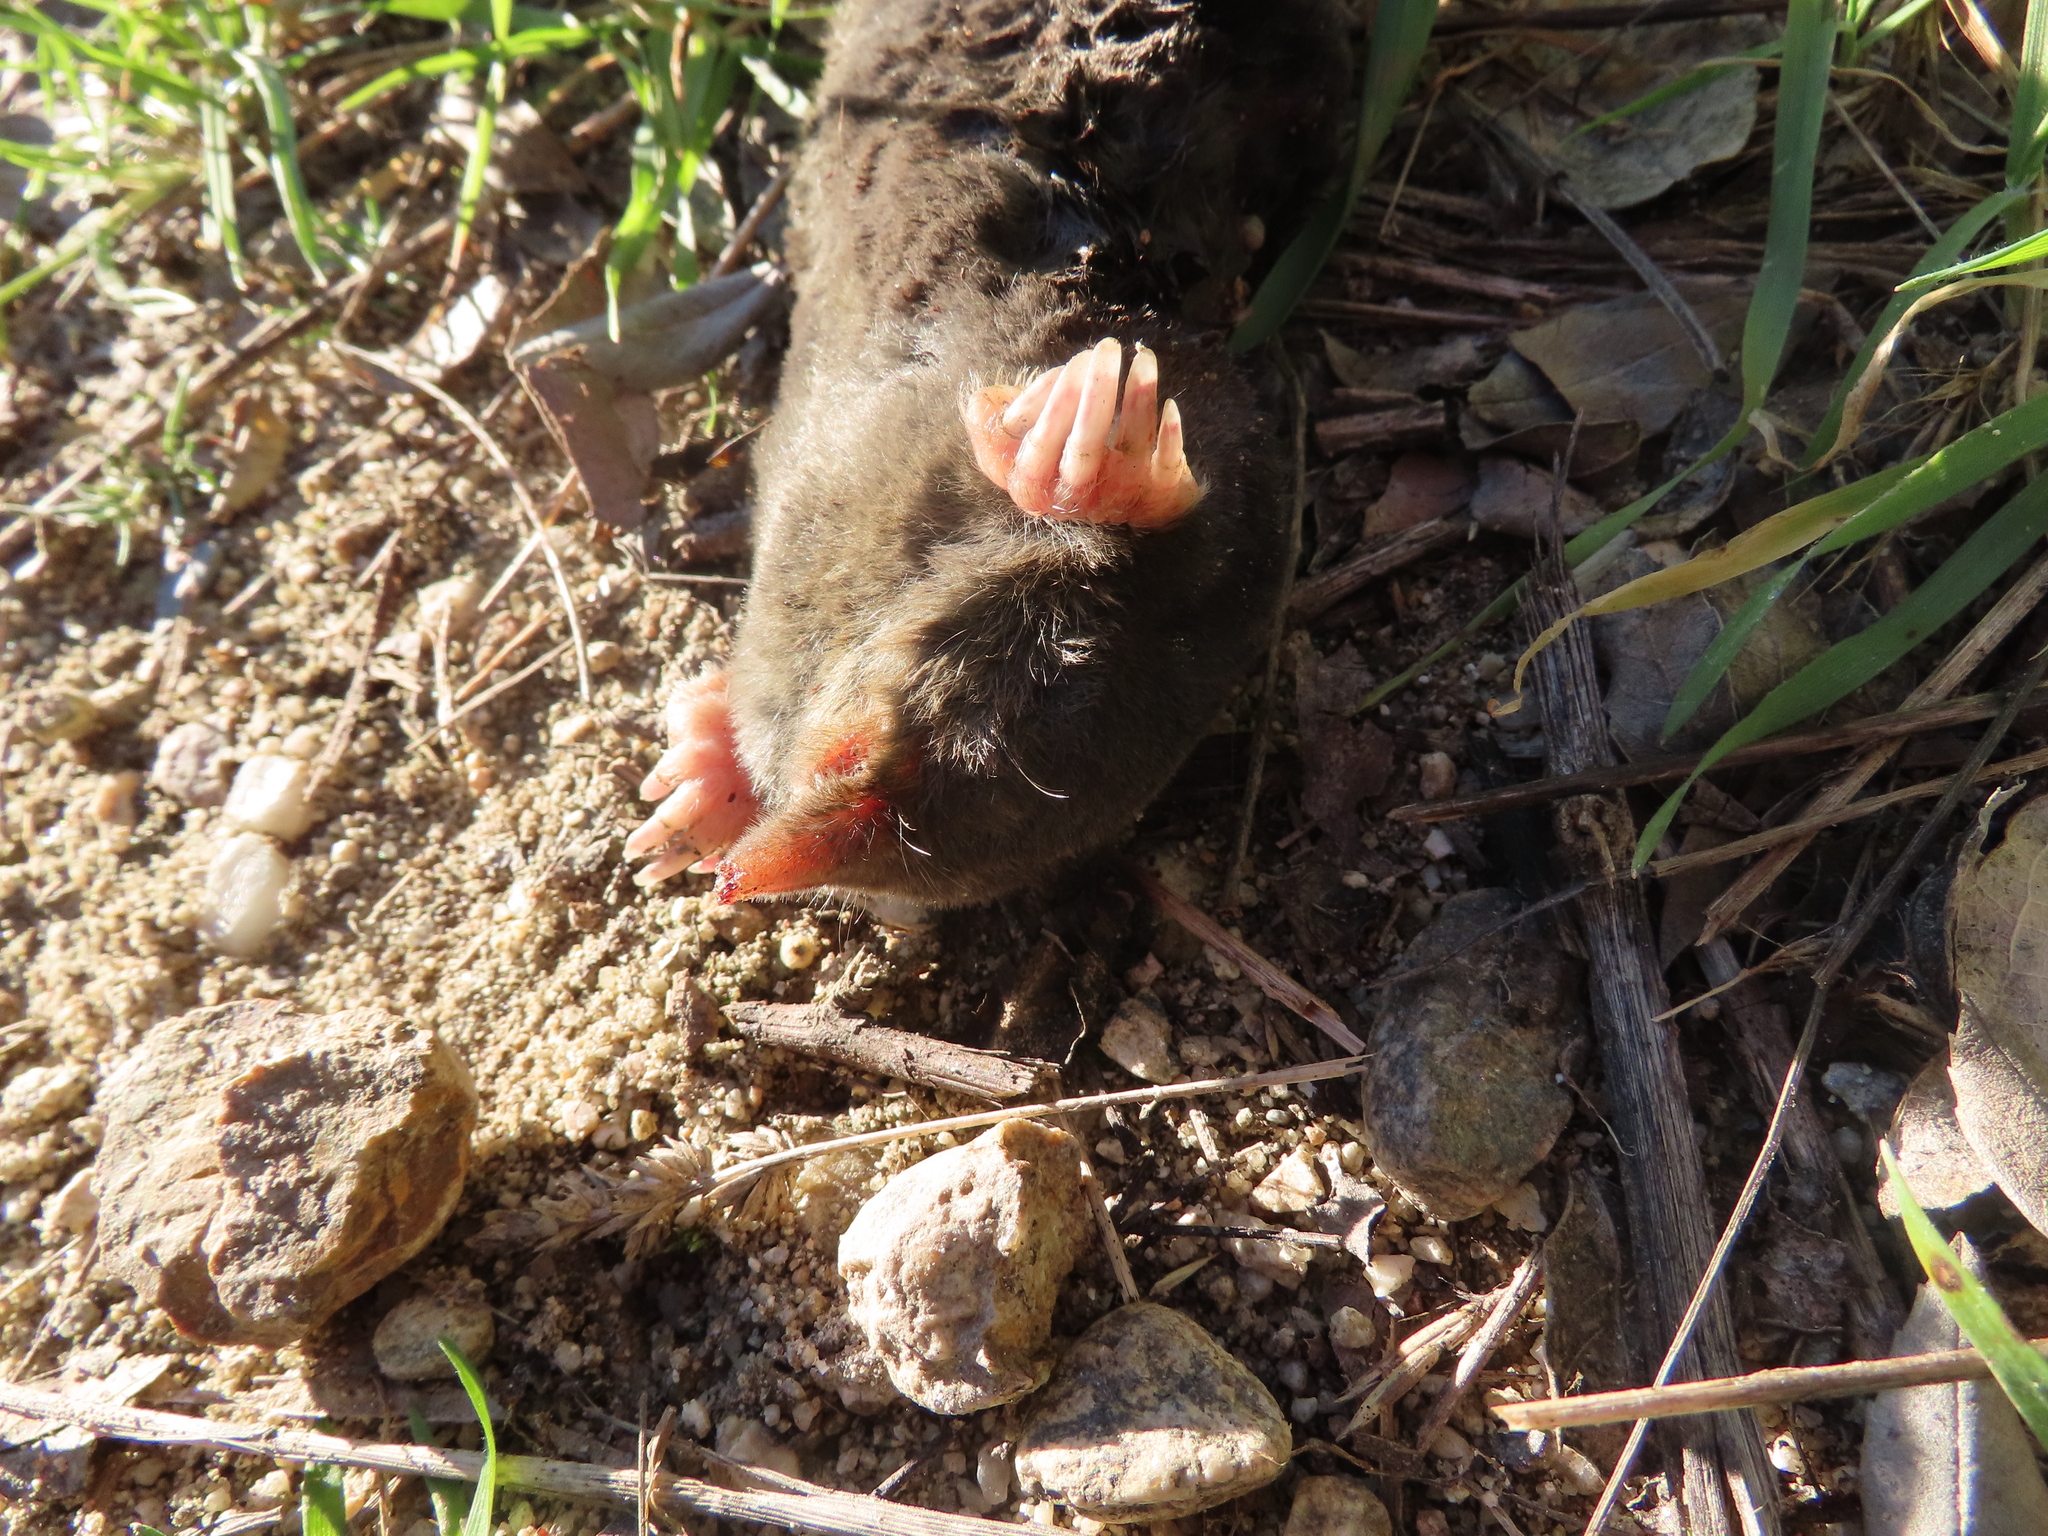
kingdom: Animalia
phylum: Chordata
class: Mammalia
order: Soricomorpha
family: Talpidae
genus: Talpa
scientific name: Talpa occidentalis
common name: Iberian mole
